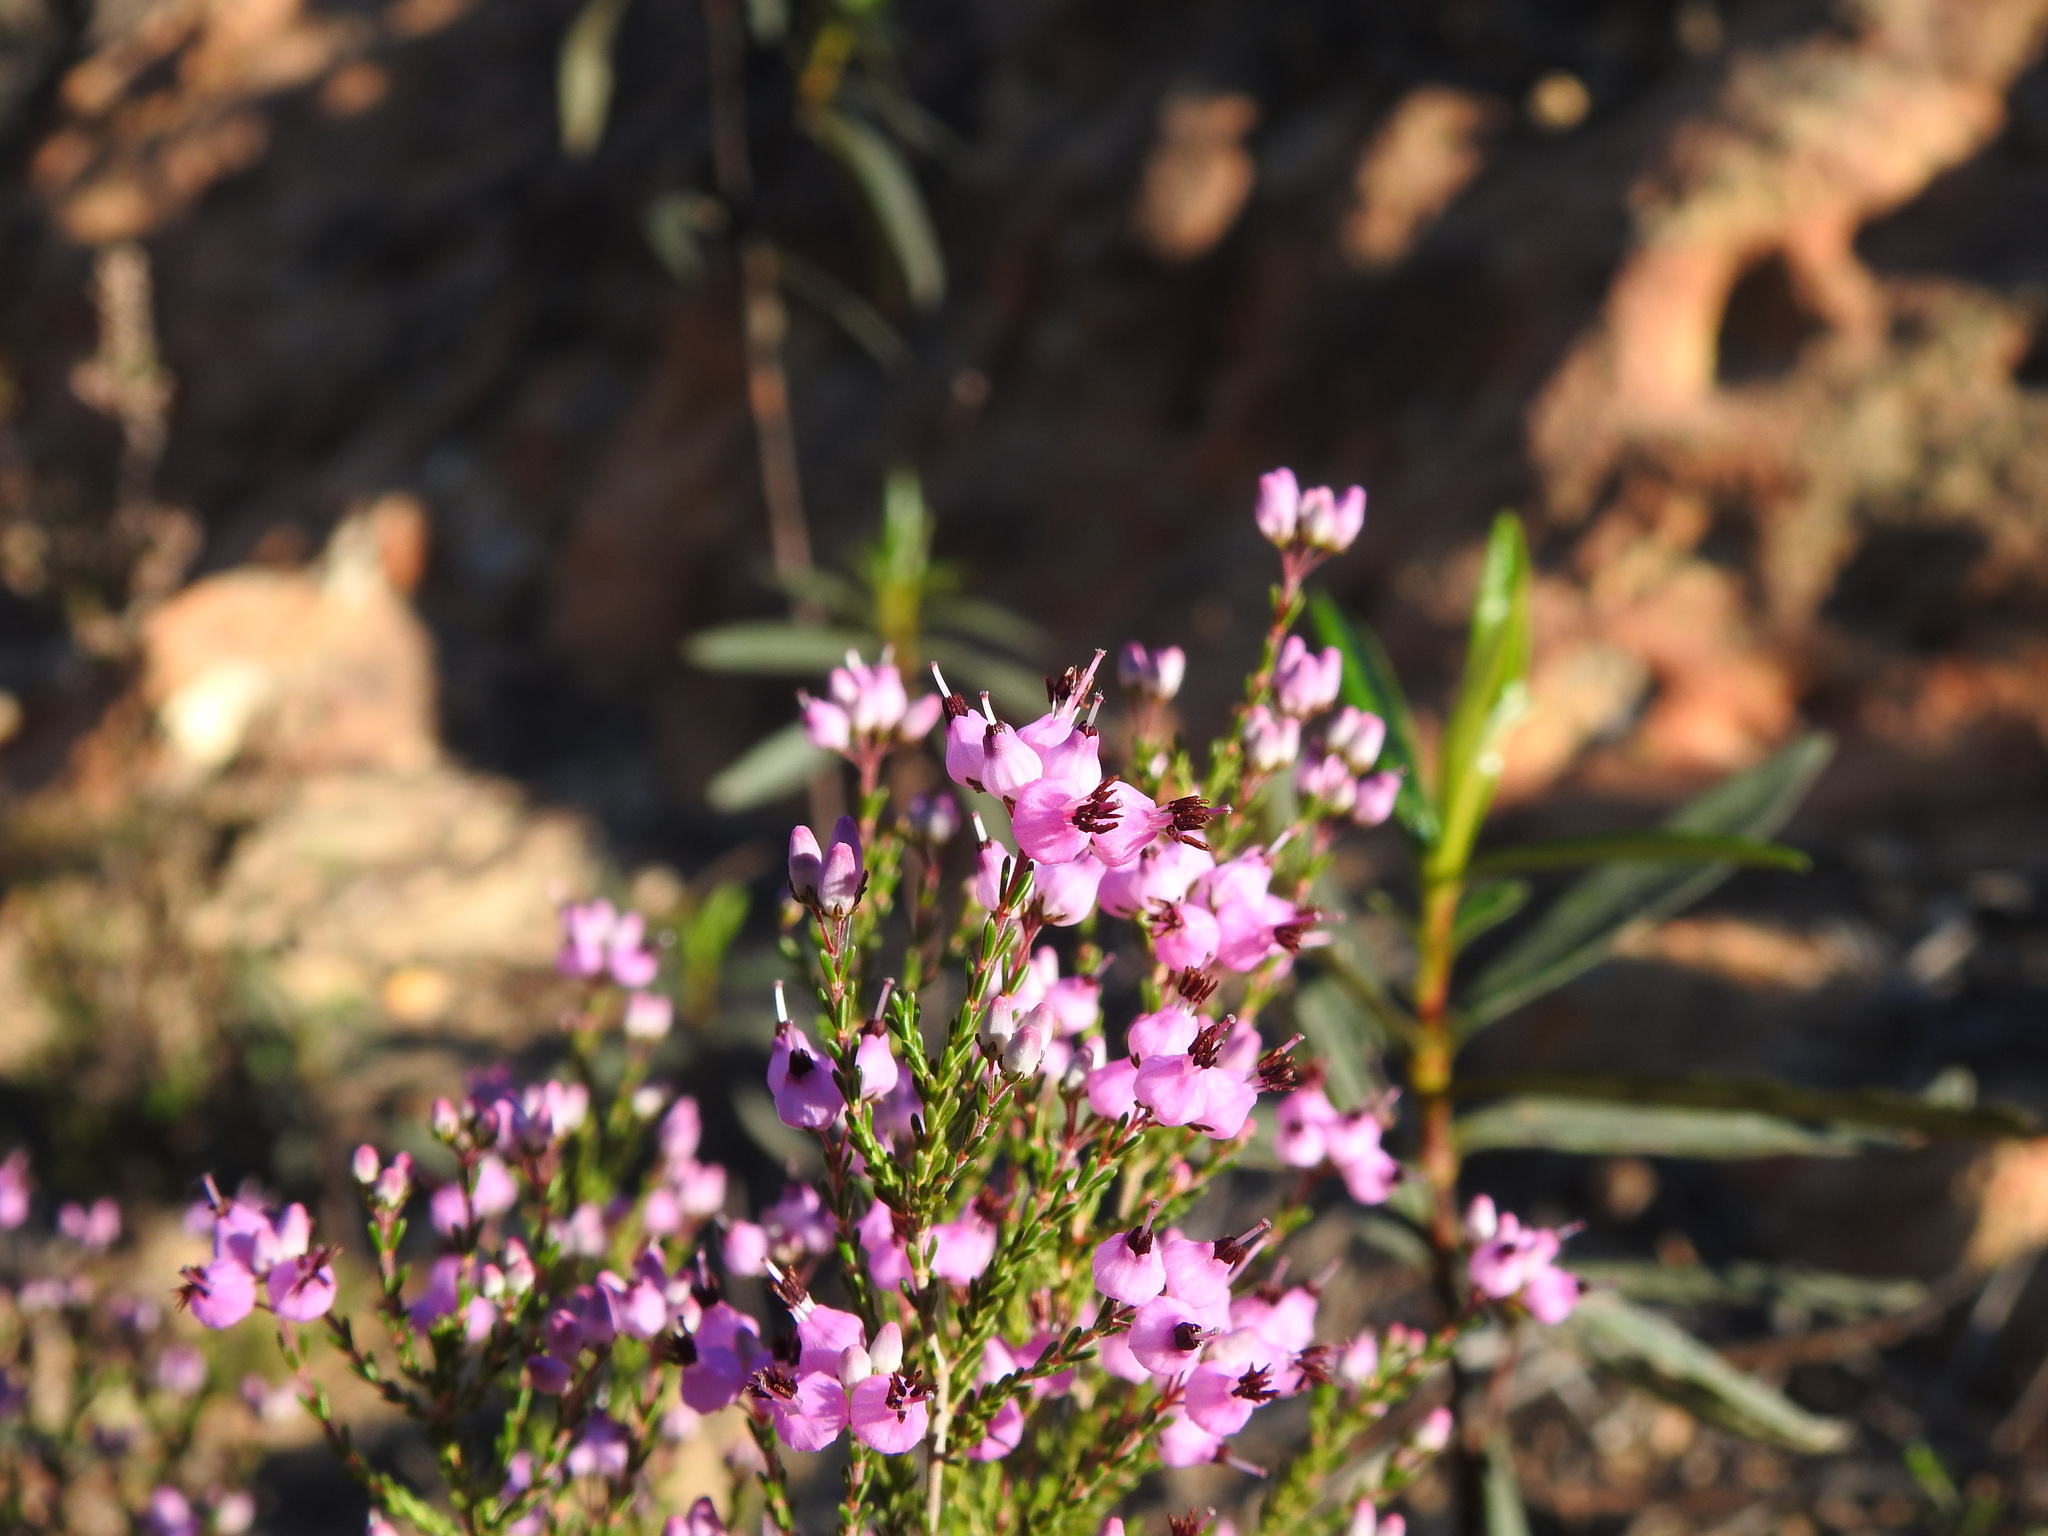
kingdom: Plantae
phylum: Tracheophyta
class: Magnoliopsida
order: Ericales
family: Ericaceae
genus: Erica
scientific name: Erica umbellata
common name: Dwarf spanish heath
